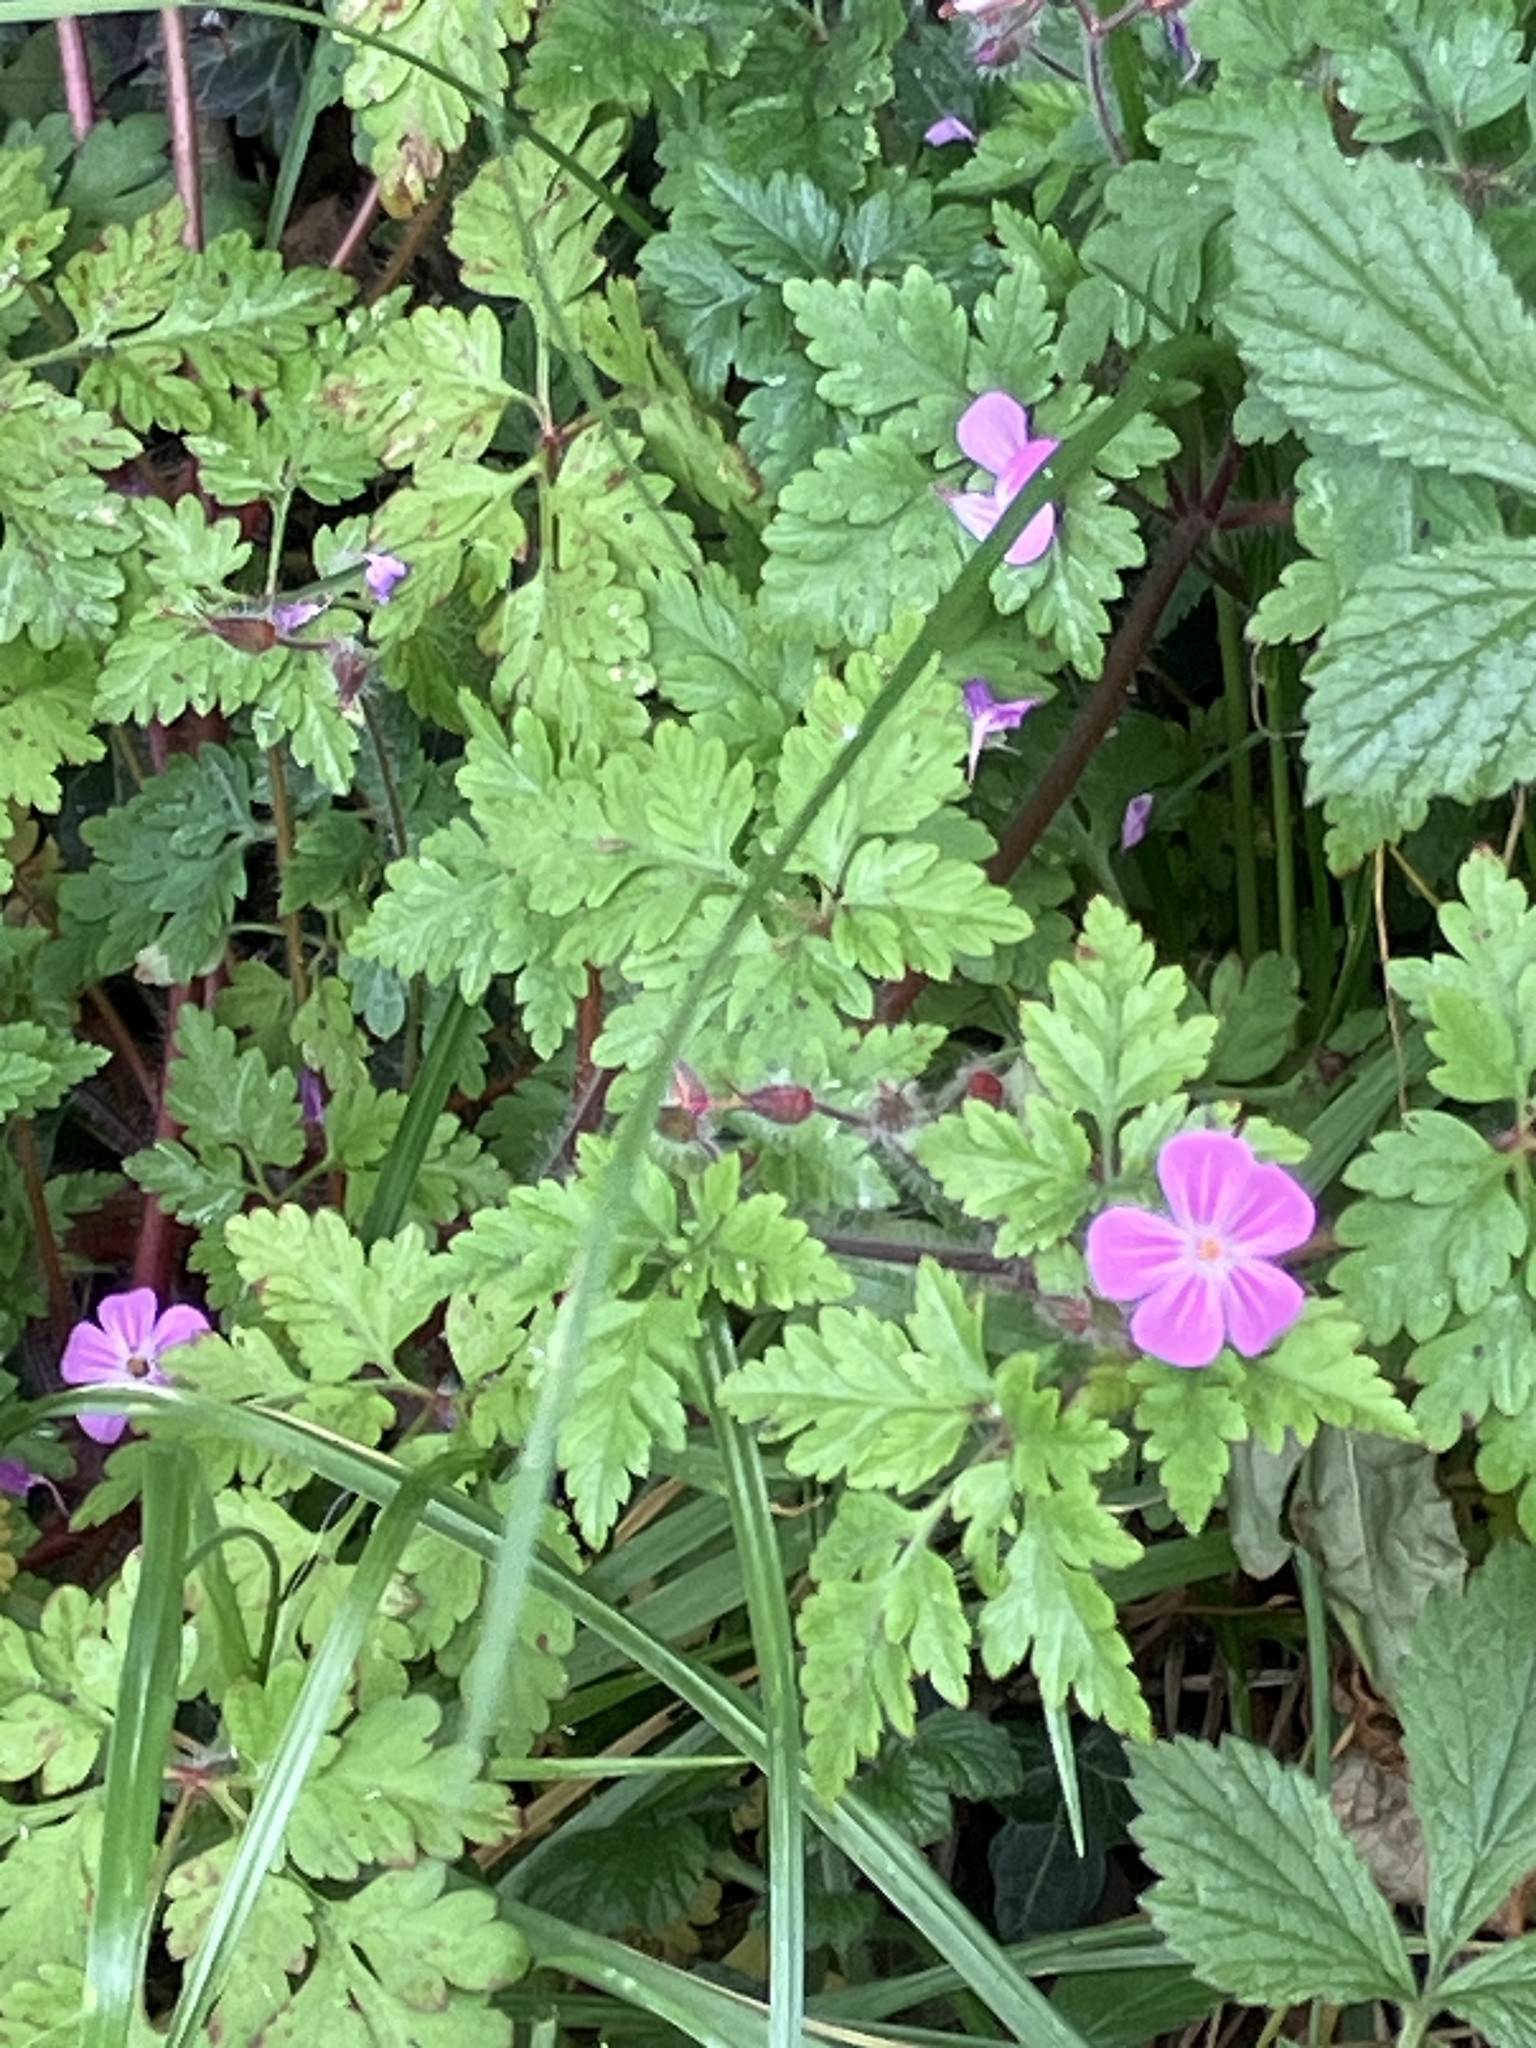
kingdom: Plantae
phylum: Tracheophyta
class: Magnoliopsida
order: Geraniales
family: Geraniaceae
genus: Geranium
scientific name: Geranium robertianum
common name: Herb-robert
